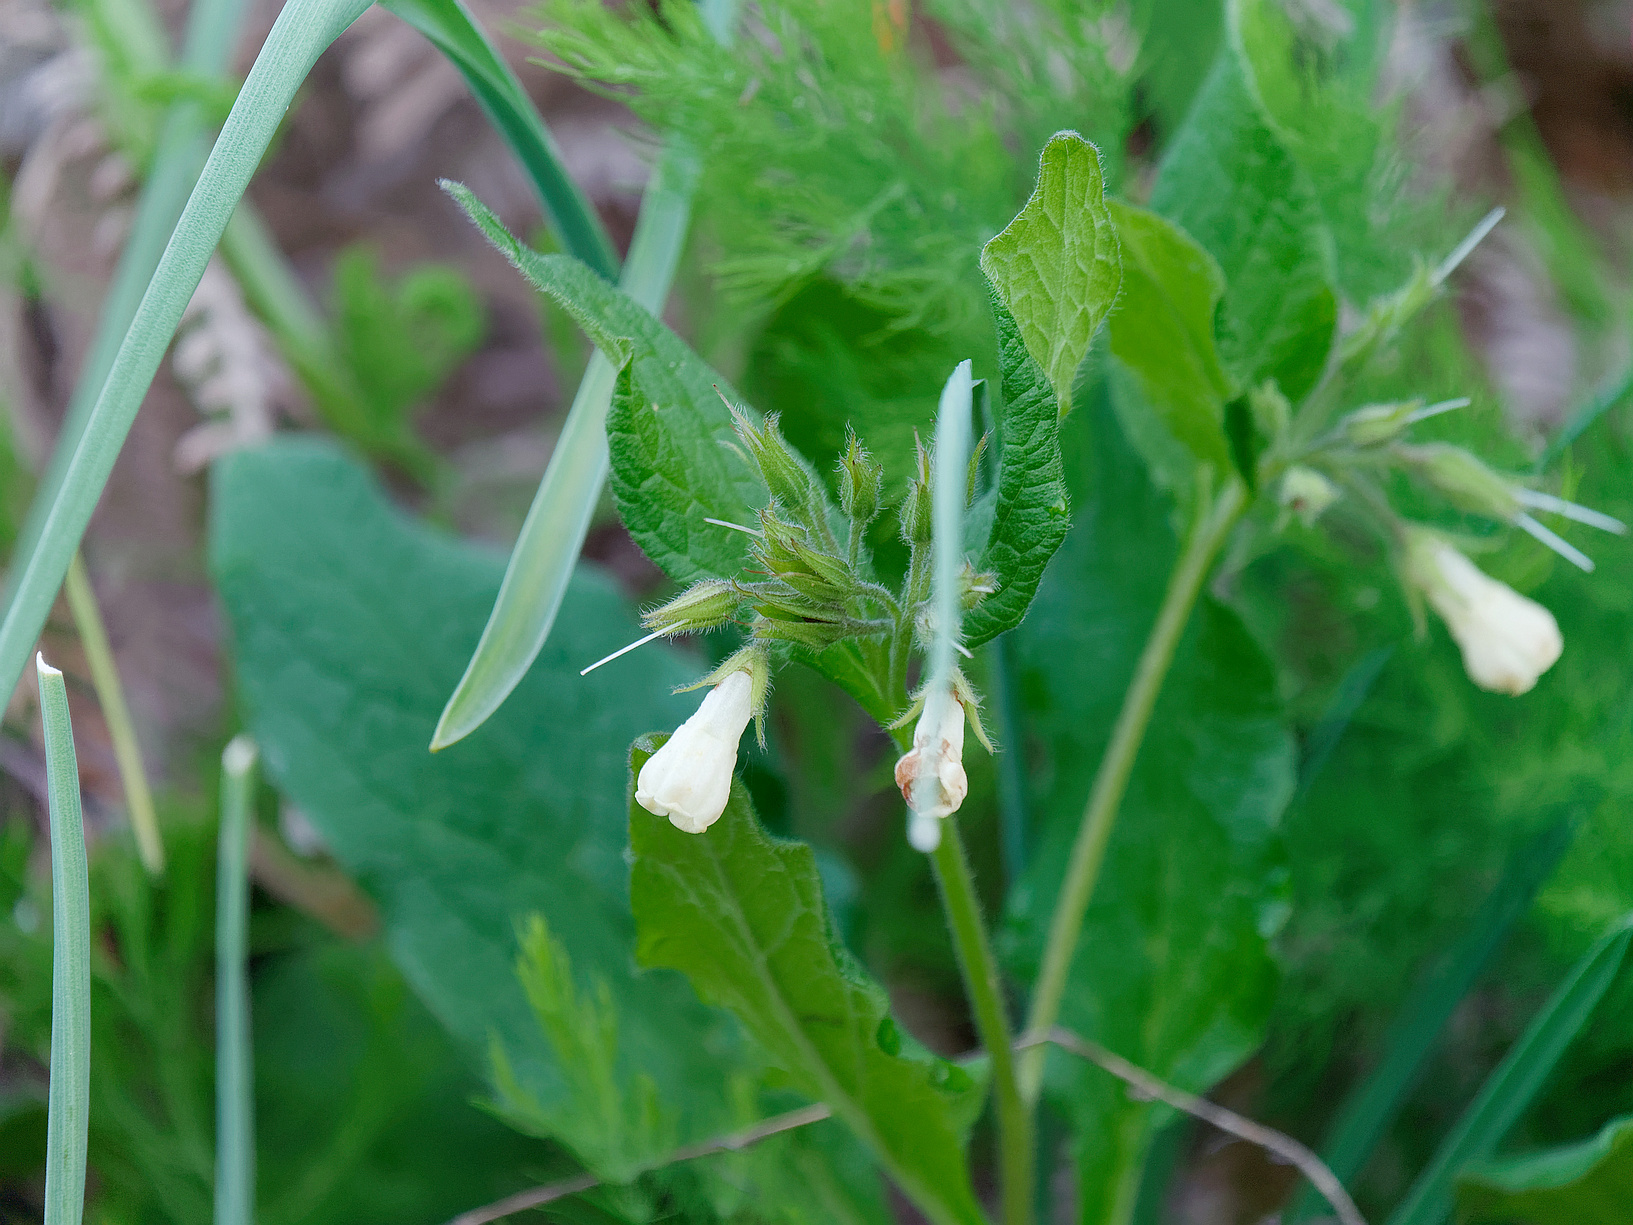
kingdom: Plantae
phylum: Tracheophyta
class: Magnoliopsida
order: Boraginales
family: Boraginaceae
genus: Symphytum
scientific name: Symphytum tuberosum
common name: Tuberous comfrey
